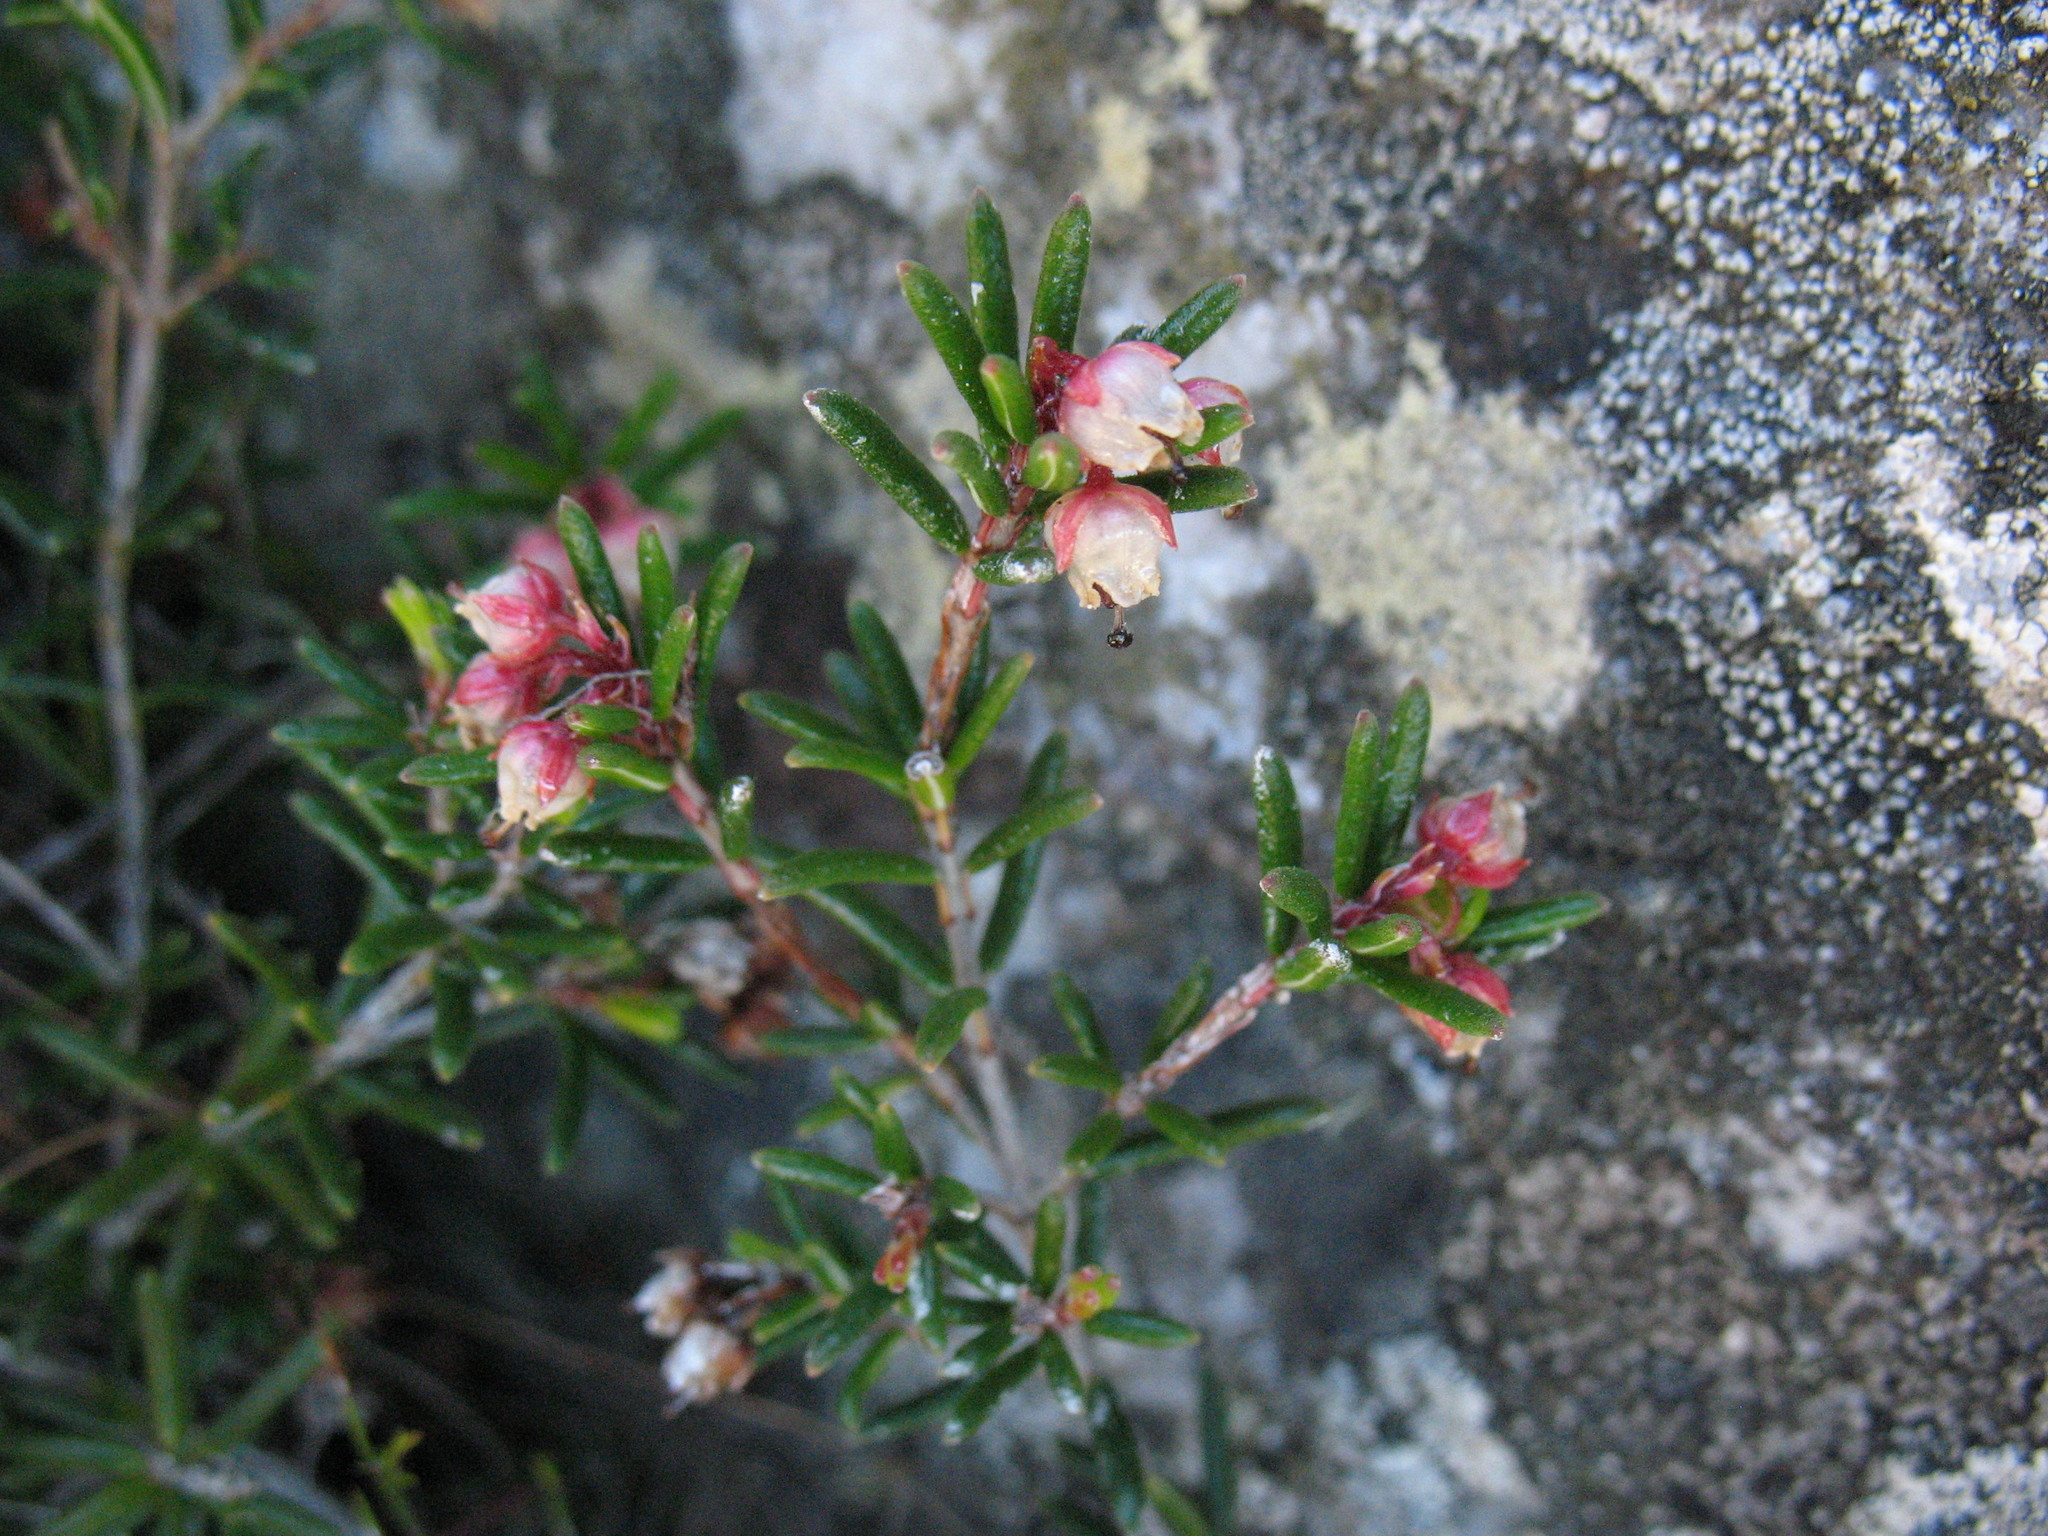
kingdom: Plantae
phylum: Tracheophyta
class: Magnoliopsida
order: Ericales
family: Ericaceae
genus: Erica
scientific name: Erica obtusata
